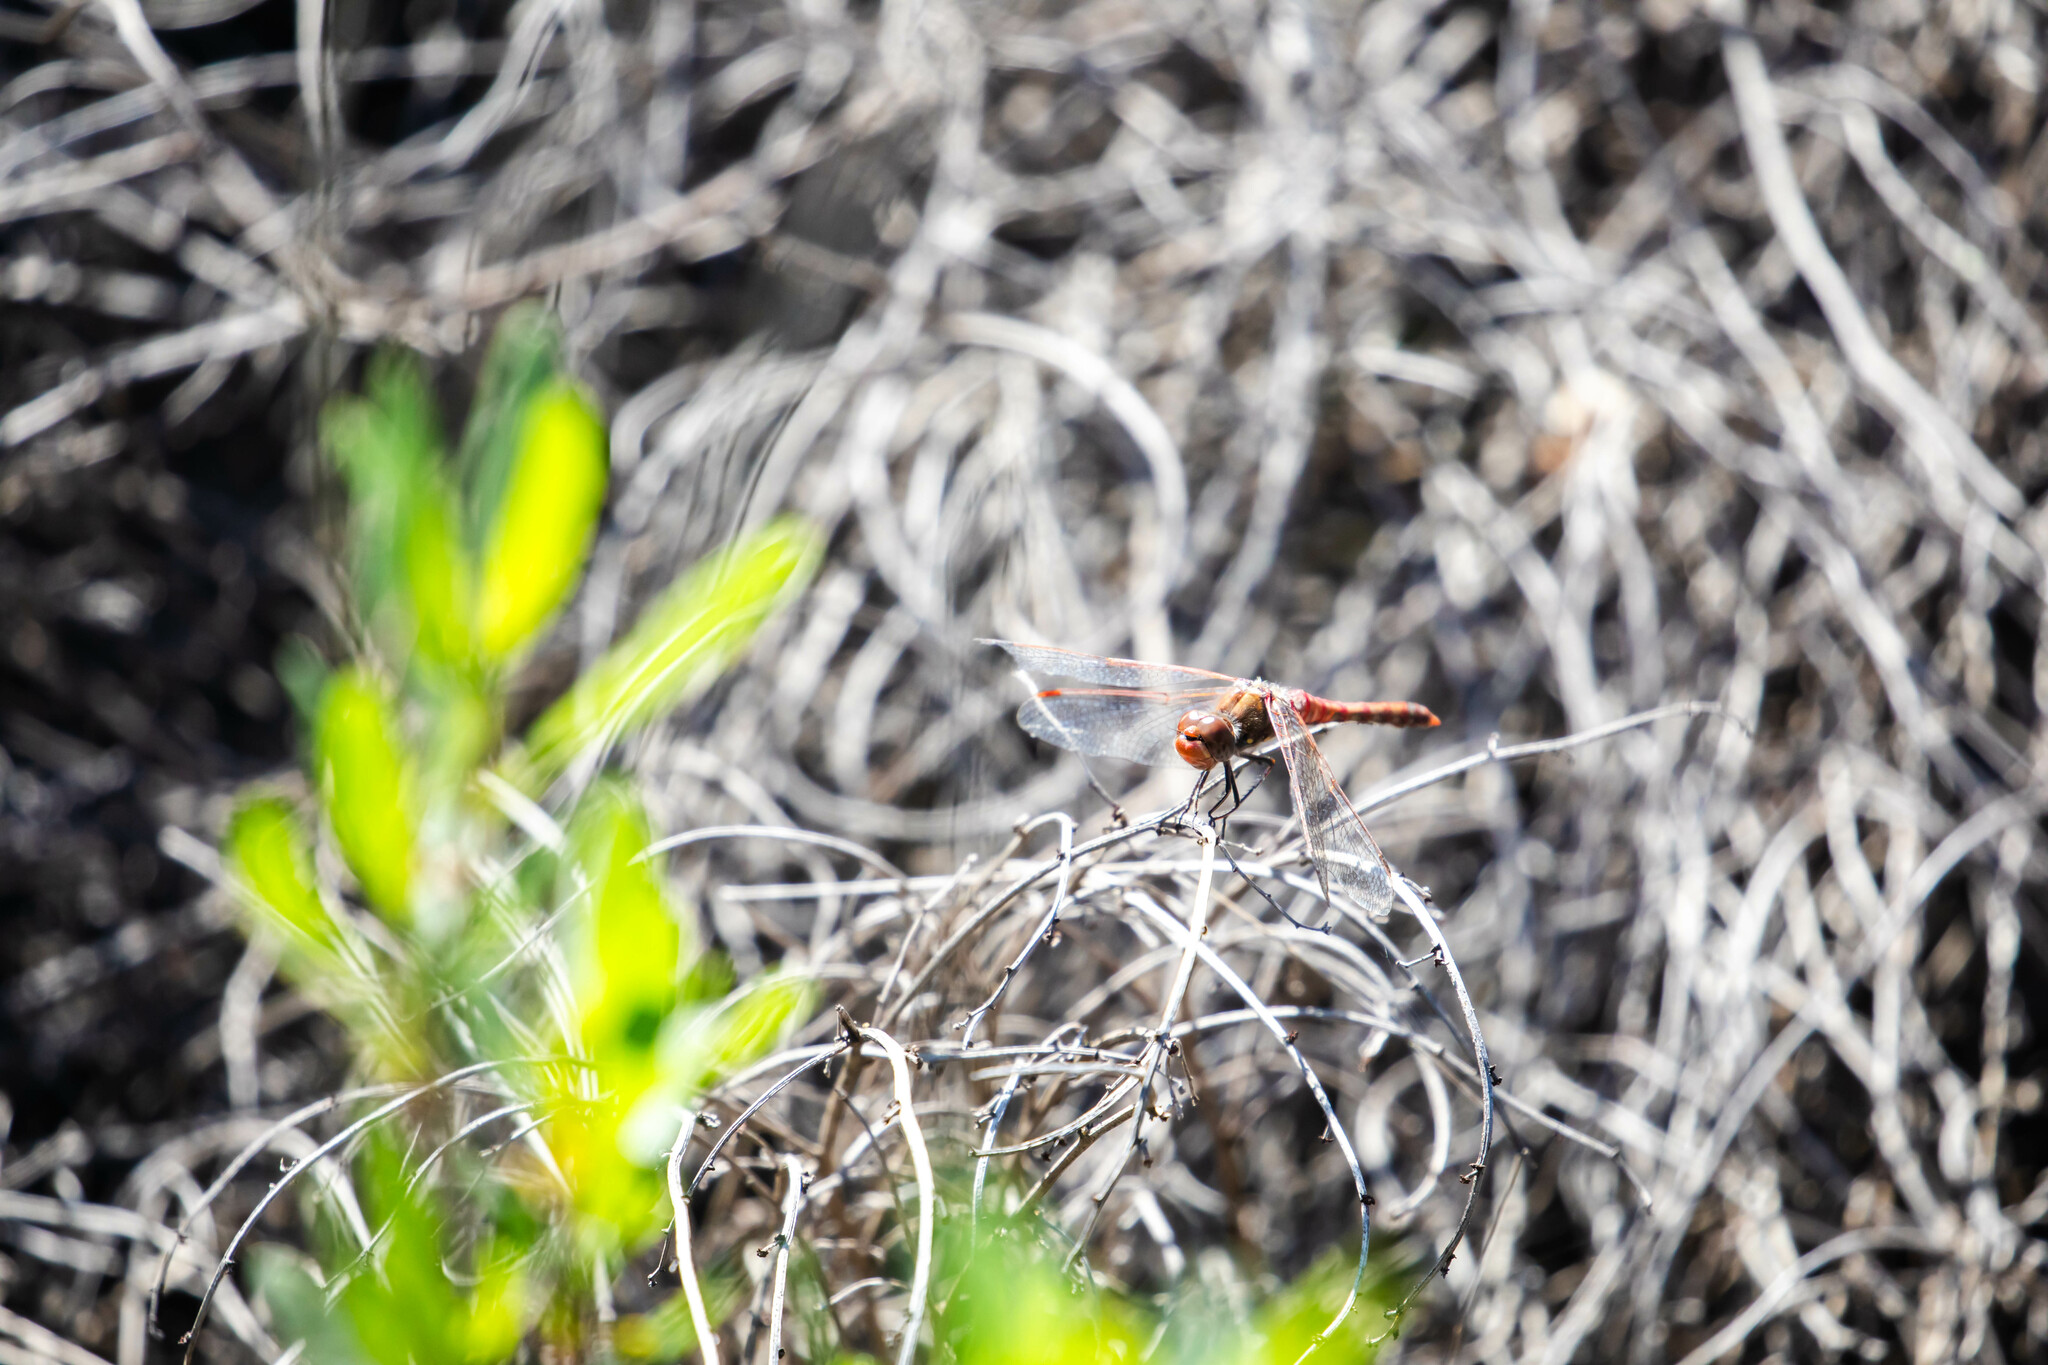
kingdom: Animalia
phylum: Arthropoda
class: Insecta
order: Odonata
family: Libellulidae
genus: Sympetrum
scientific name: Sympetrum corruptum
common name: Variegated meadowhawk
